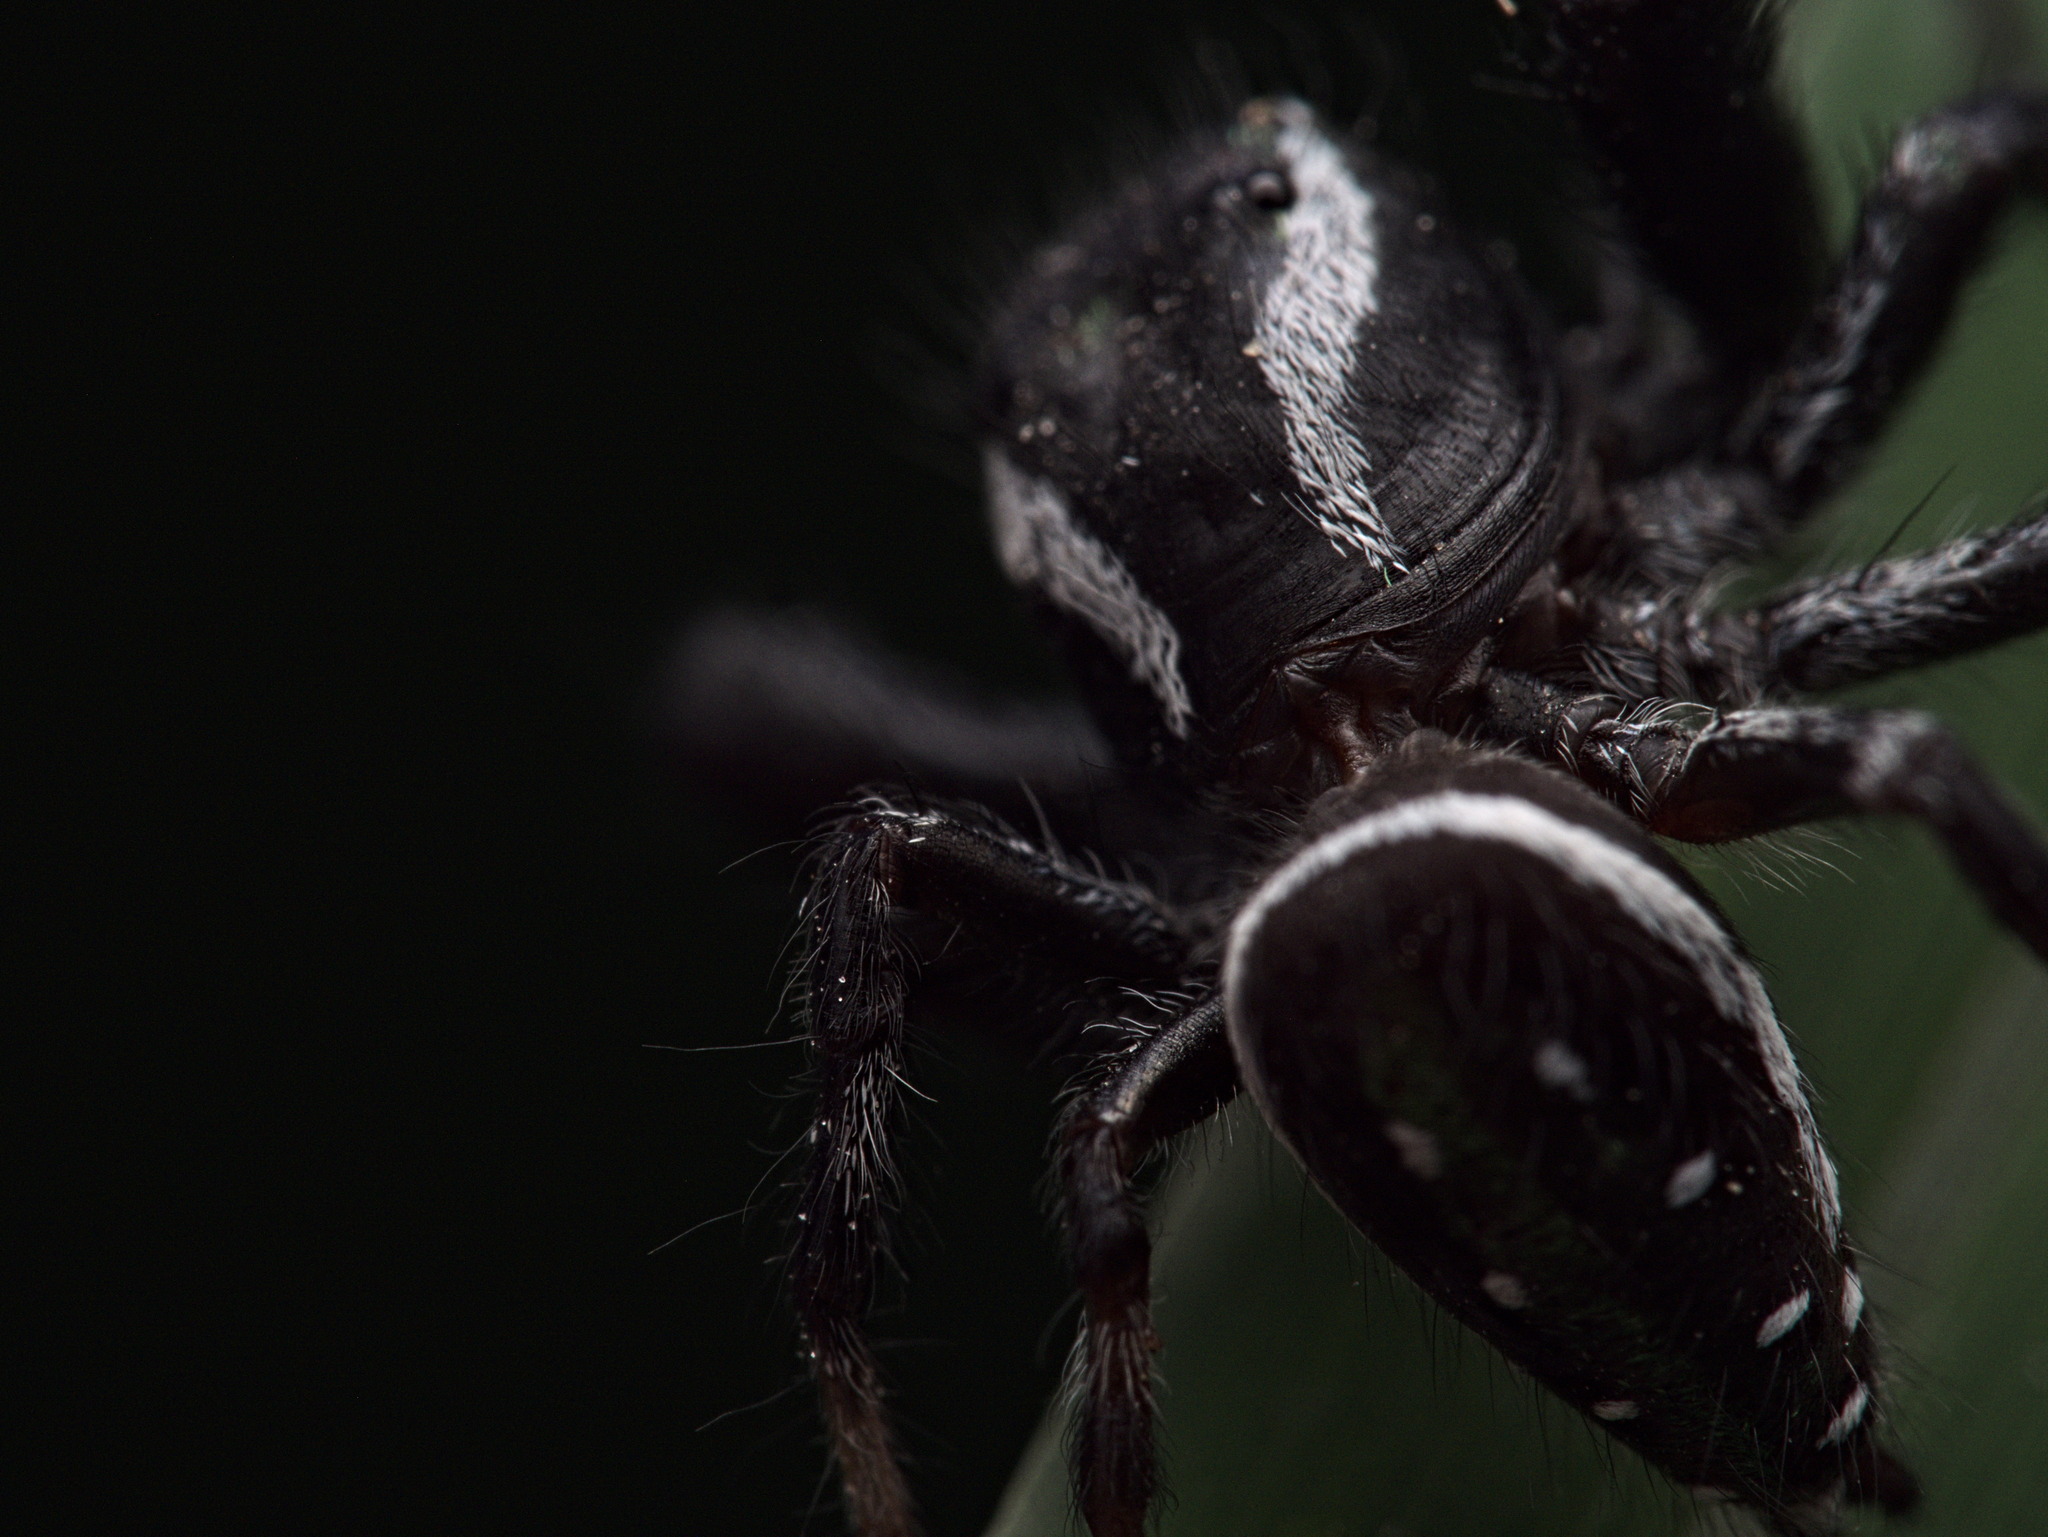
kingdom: Animalia
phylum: Arthropoda
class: Arachnida
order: Araneae
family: Salticidae
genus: Paraphidippus
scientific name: Paraphidippus aurantius
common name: Jumping spiders
